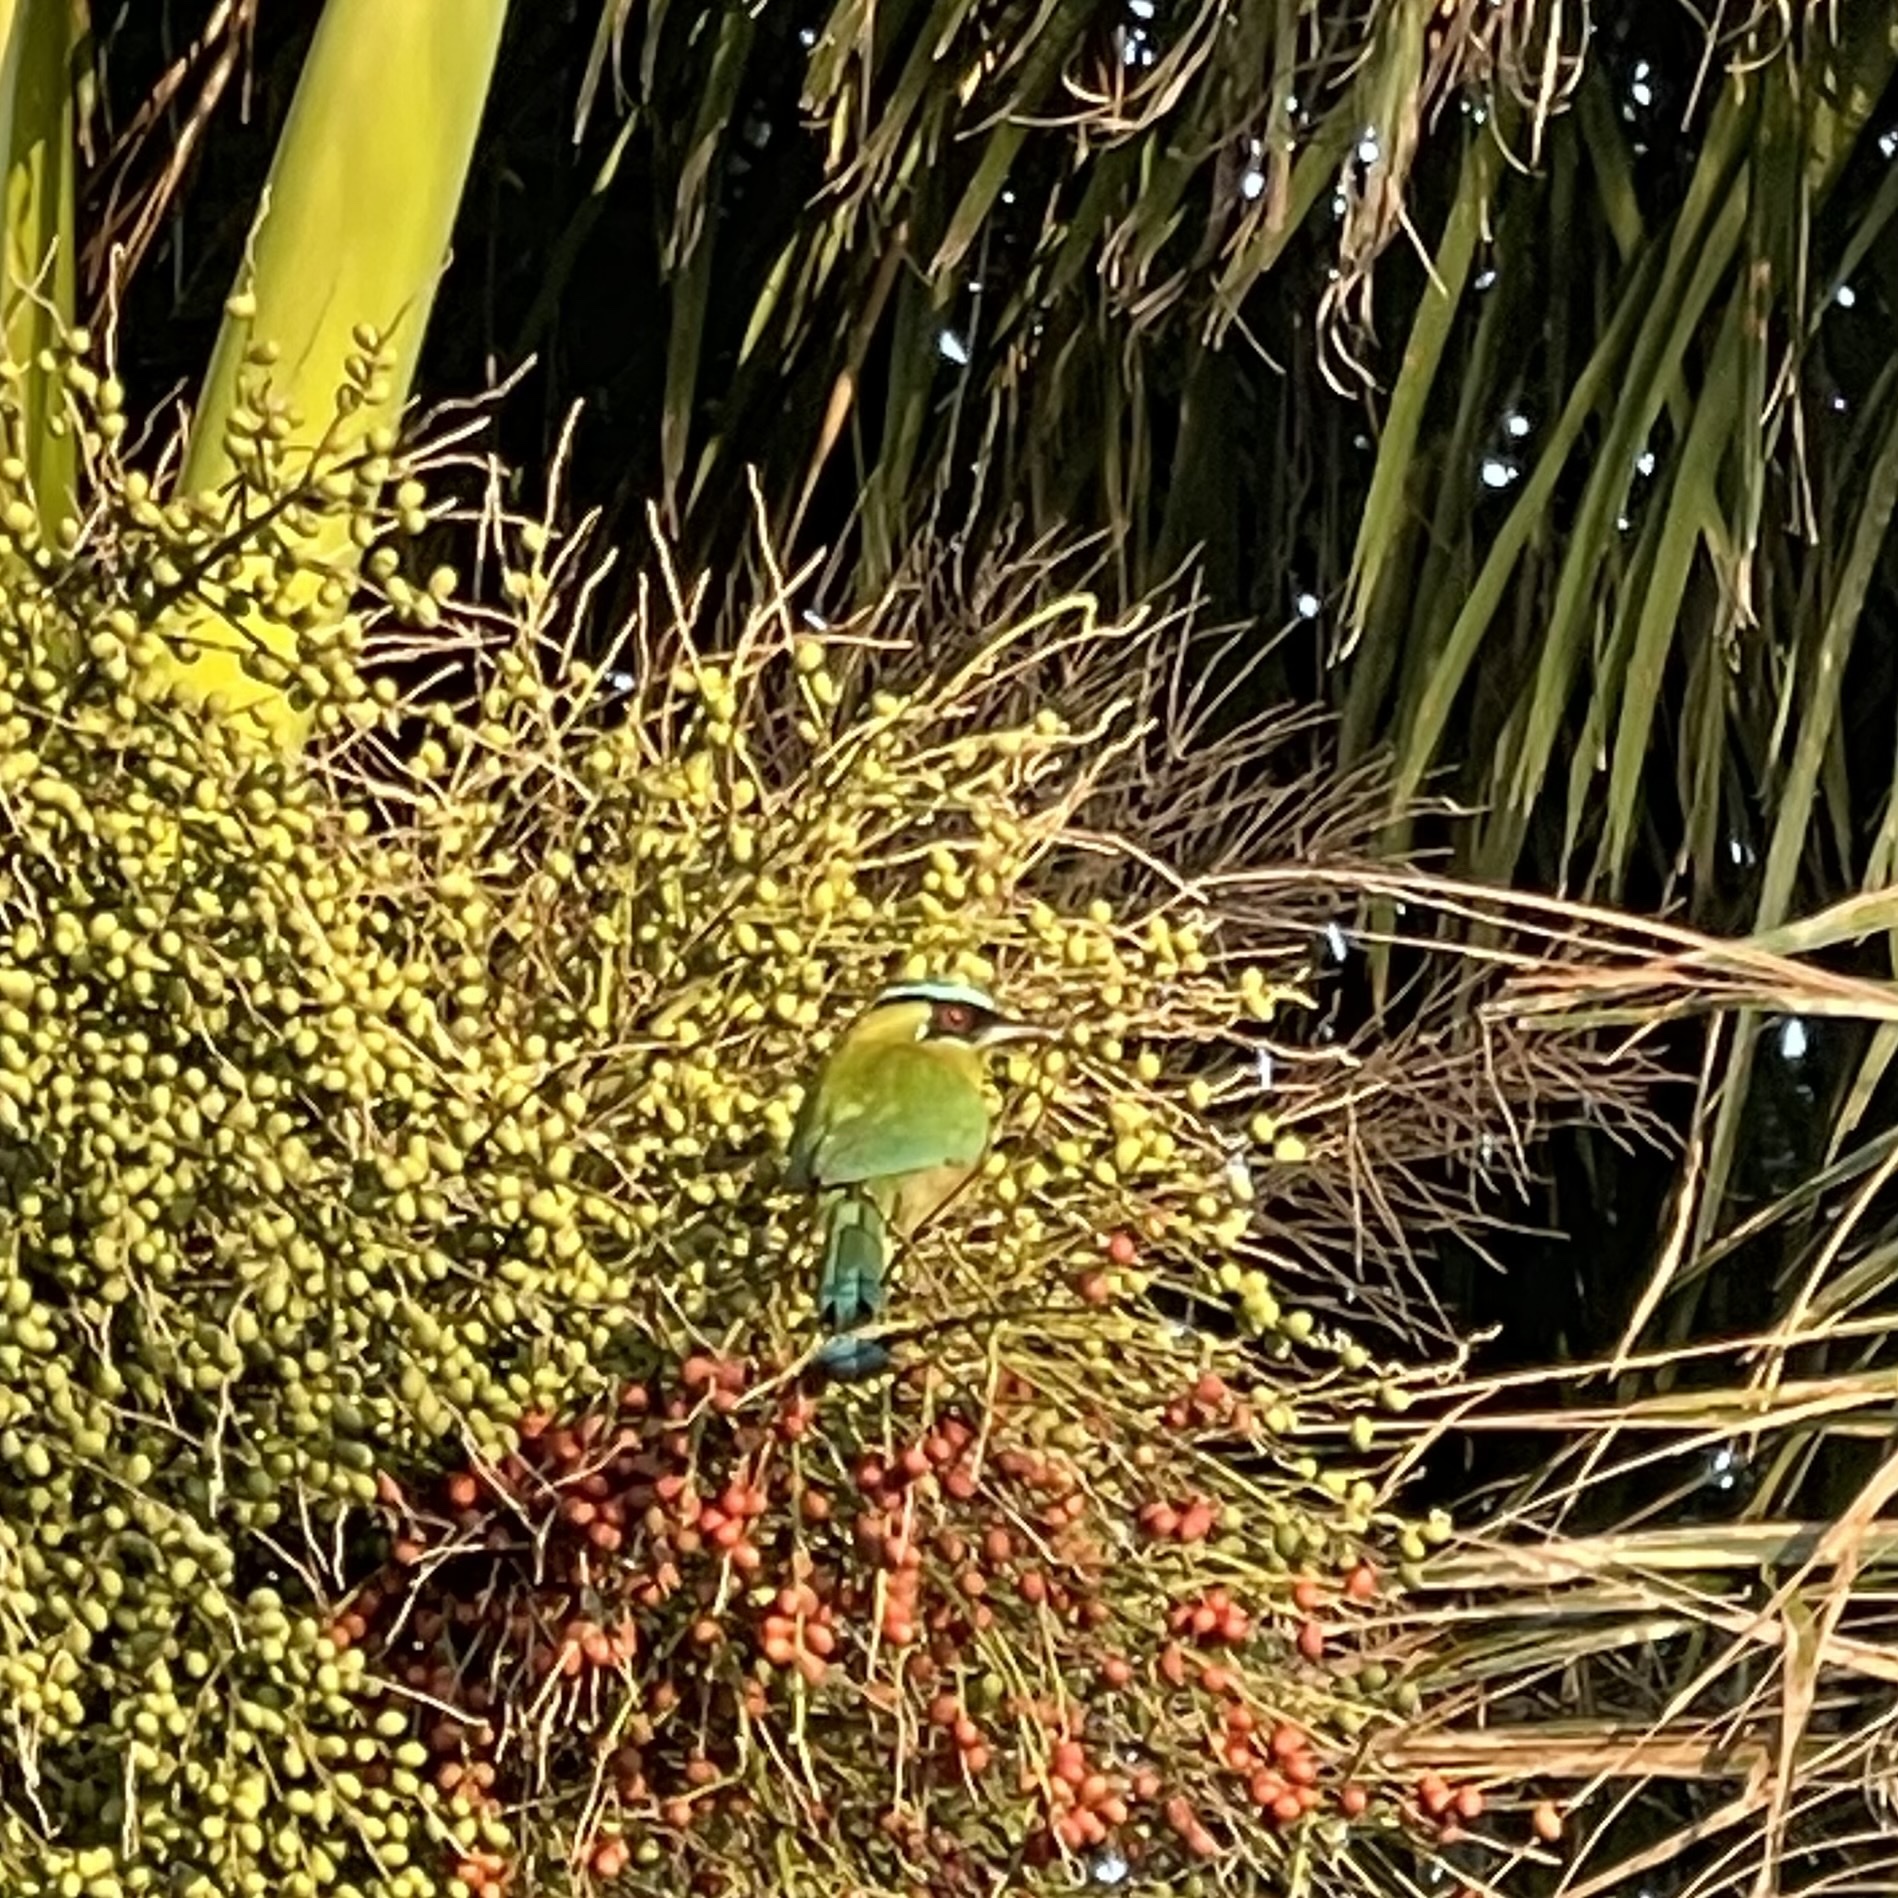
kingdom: Animalia
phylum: Chordata
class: Aves
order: Coraciiformes
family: Momotidae
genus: Momotus
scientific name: Momotus lessonii
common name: Lesson's motmot
